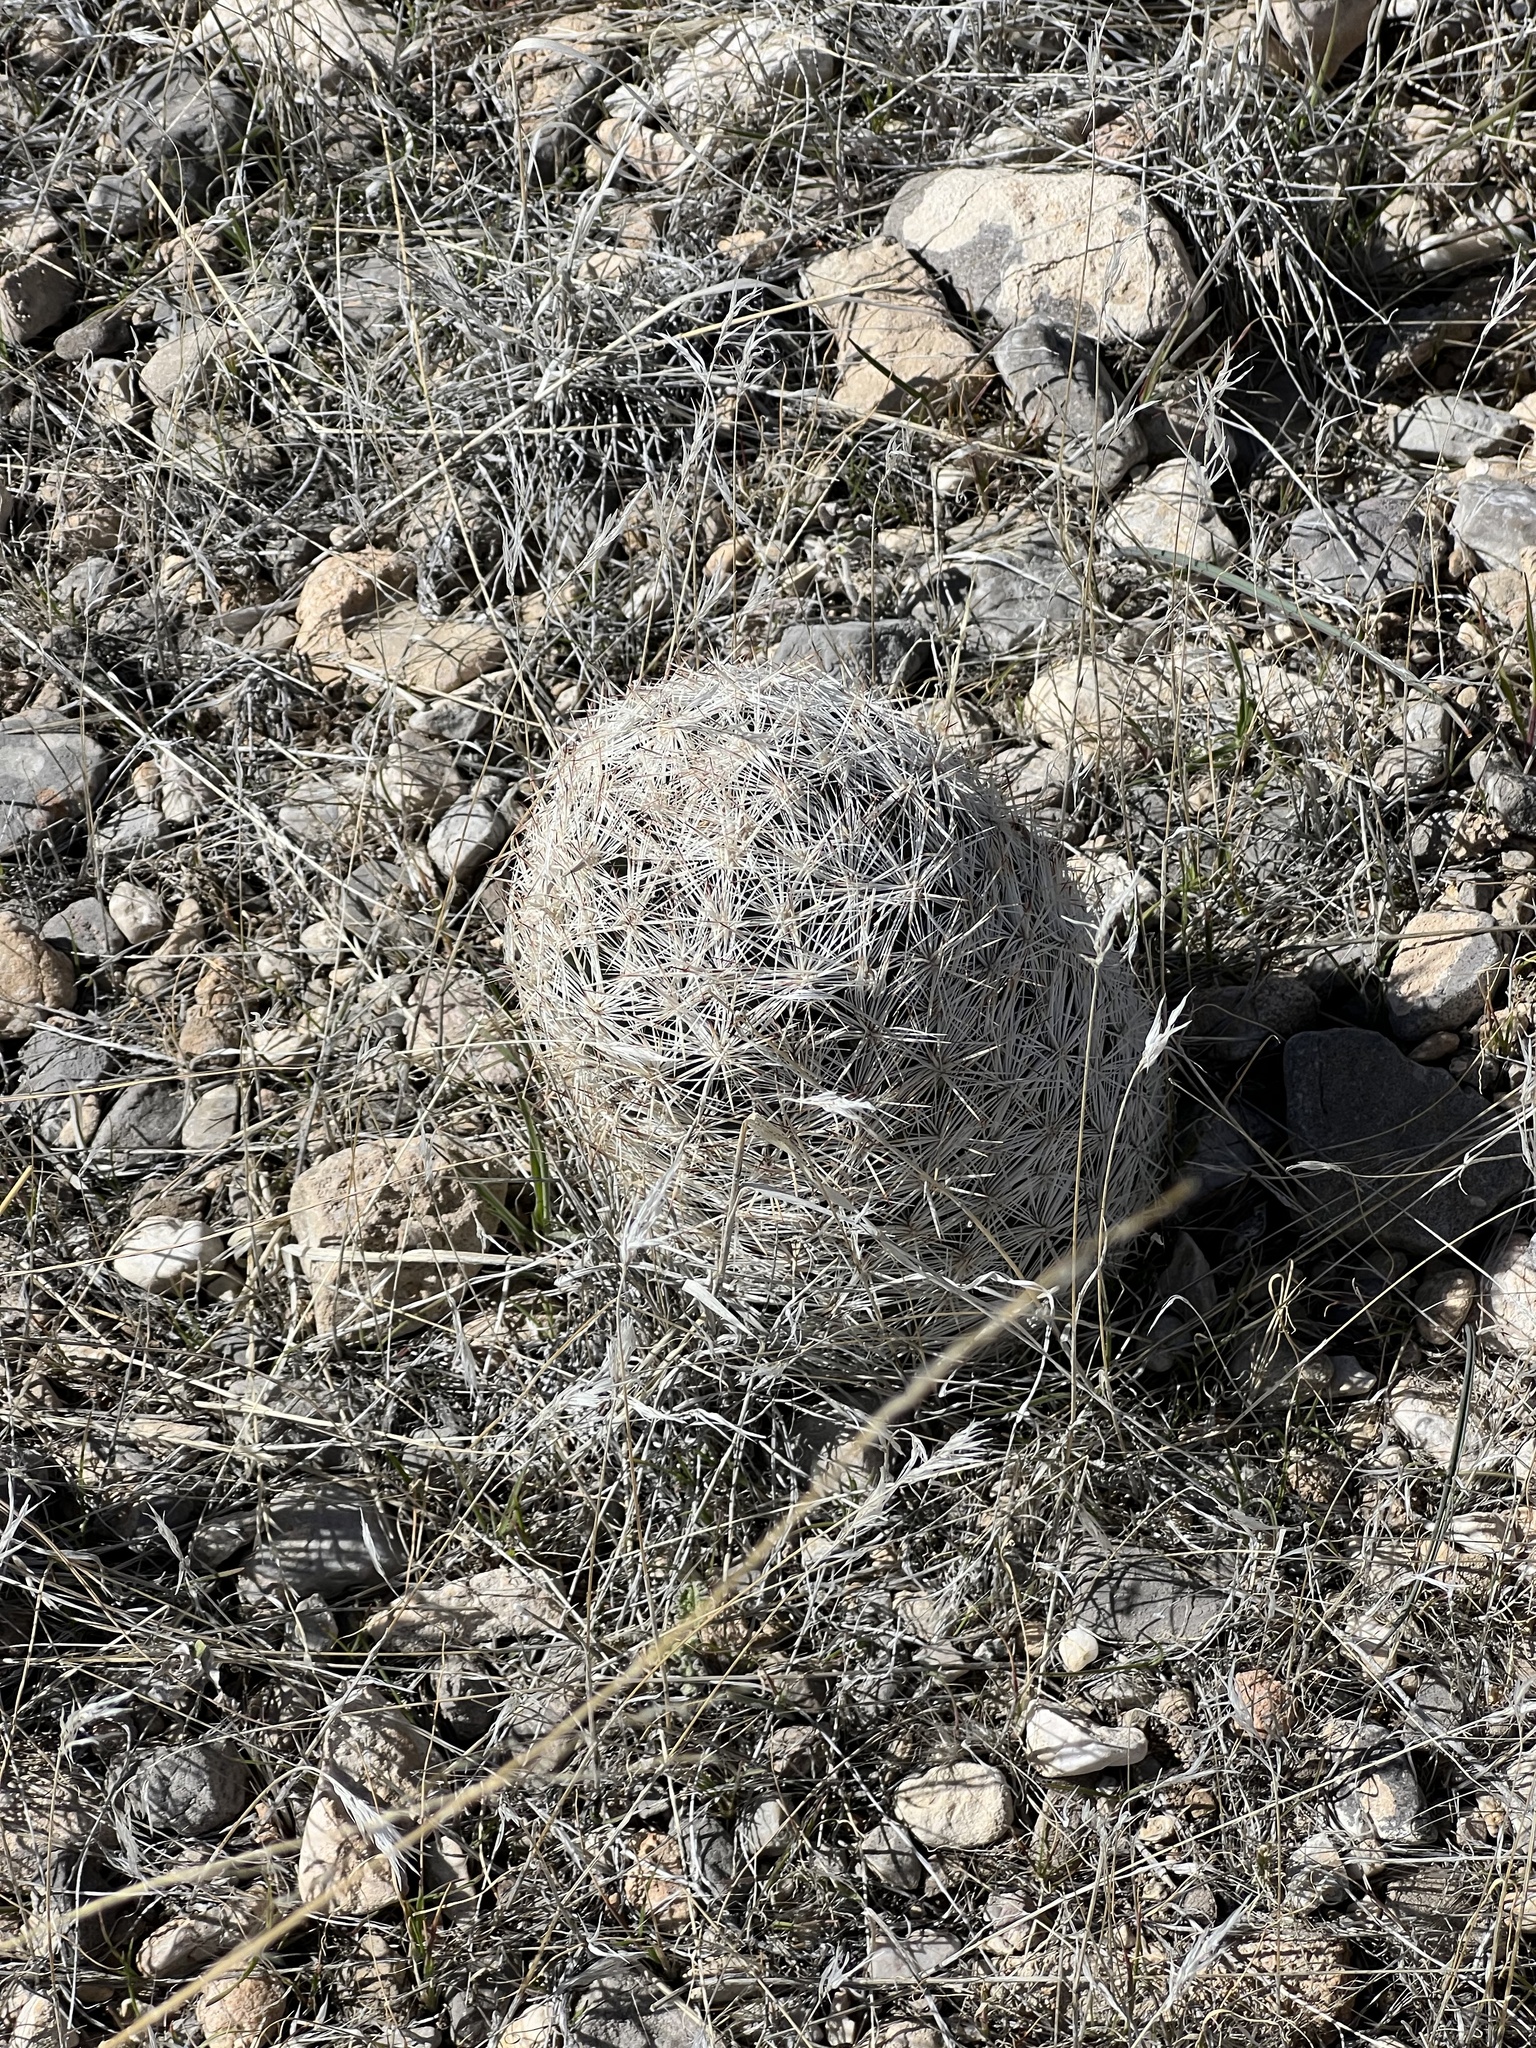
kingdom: Plantae
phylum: Tracheophyta
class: Magnoliopsida
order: Caryophyllales
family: Cactaceae
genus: Pelecyphora
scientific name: Pelecyphora dasyacantha
